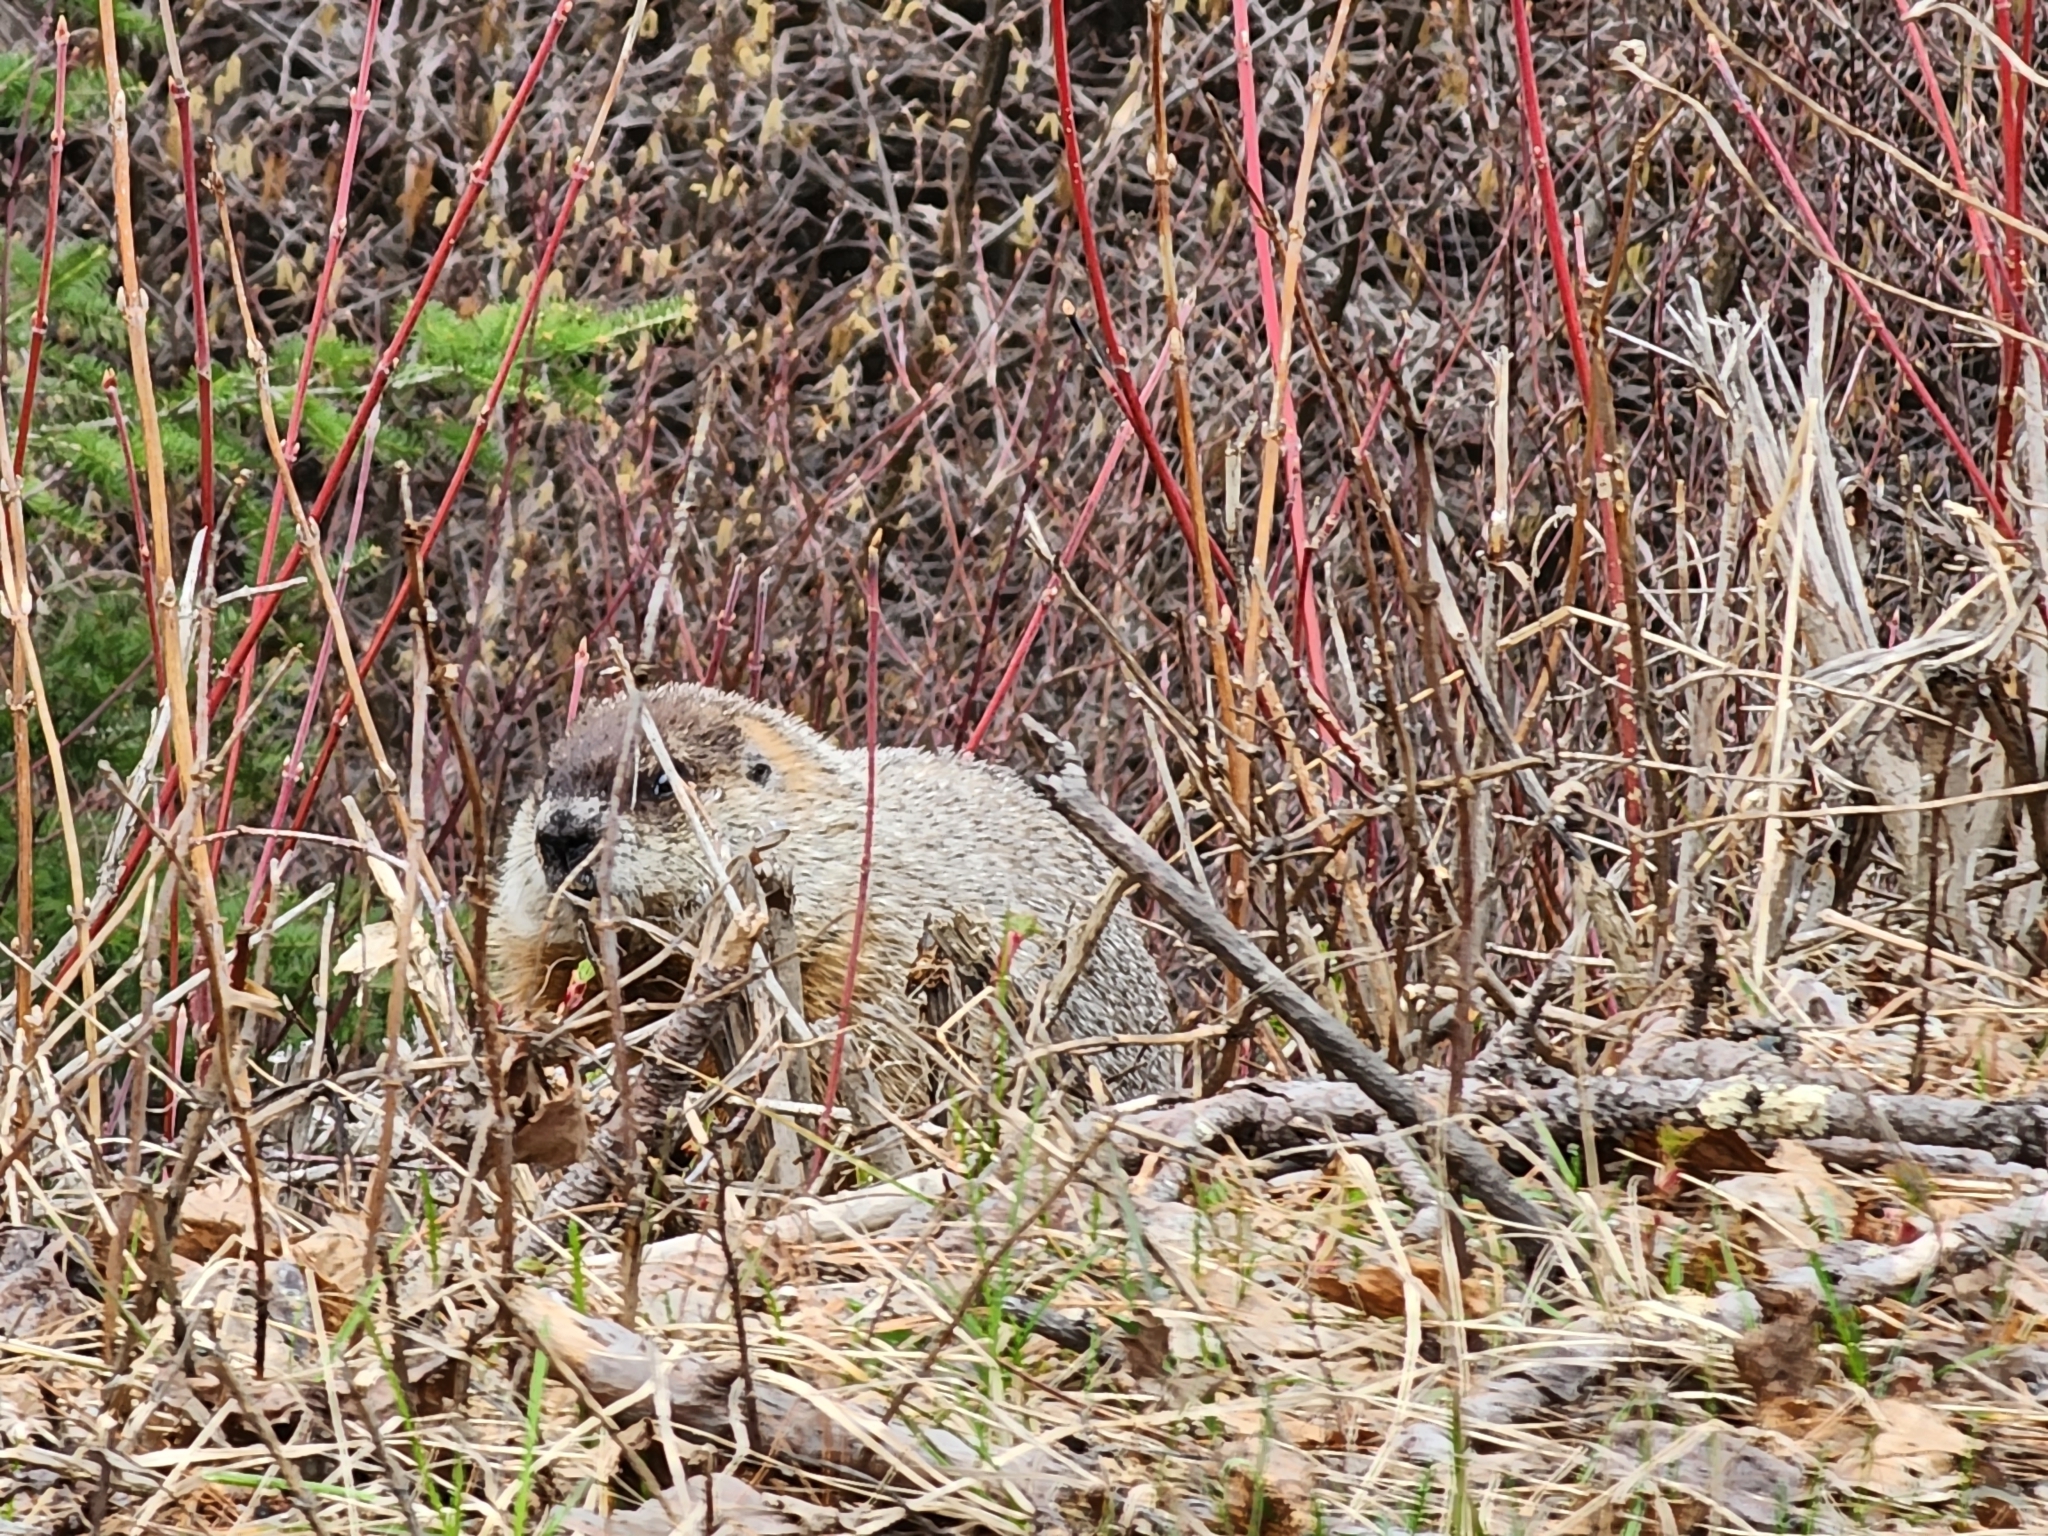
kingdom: Animalia
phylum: Chordata
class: Mammalia
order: Rodentia
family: Sciuridae
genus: Marmota
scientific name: Marmota monax
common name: Groundhog
